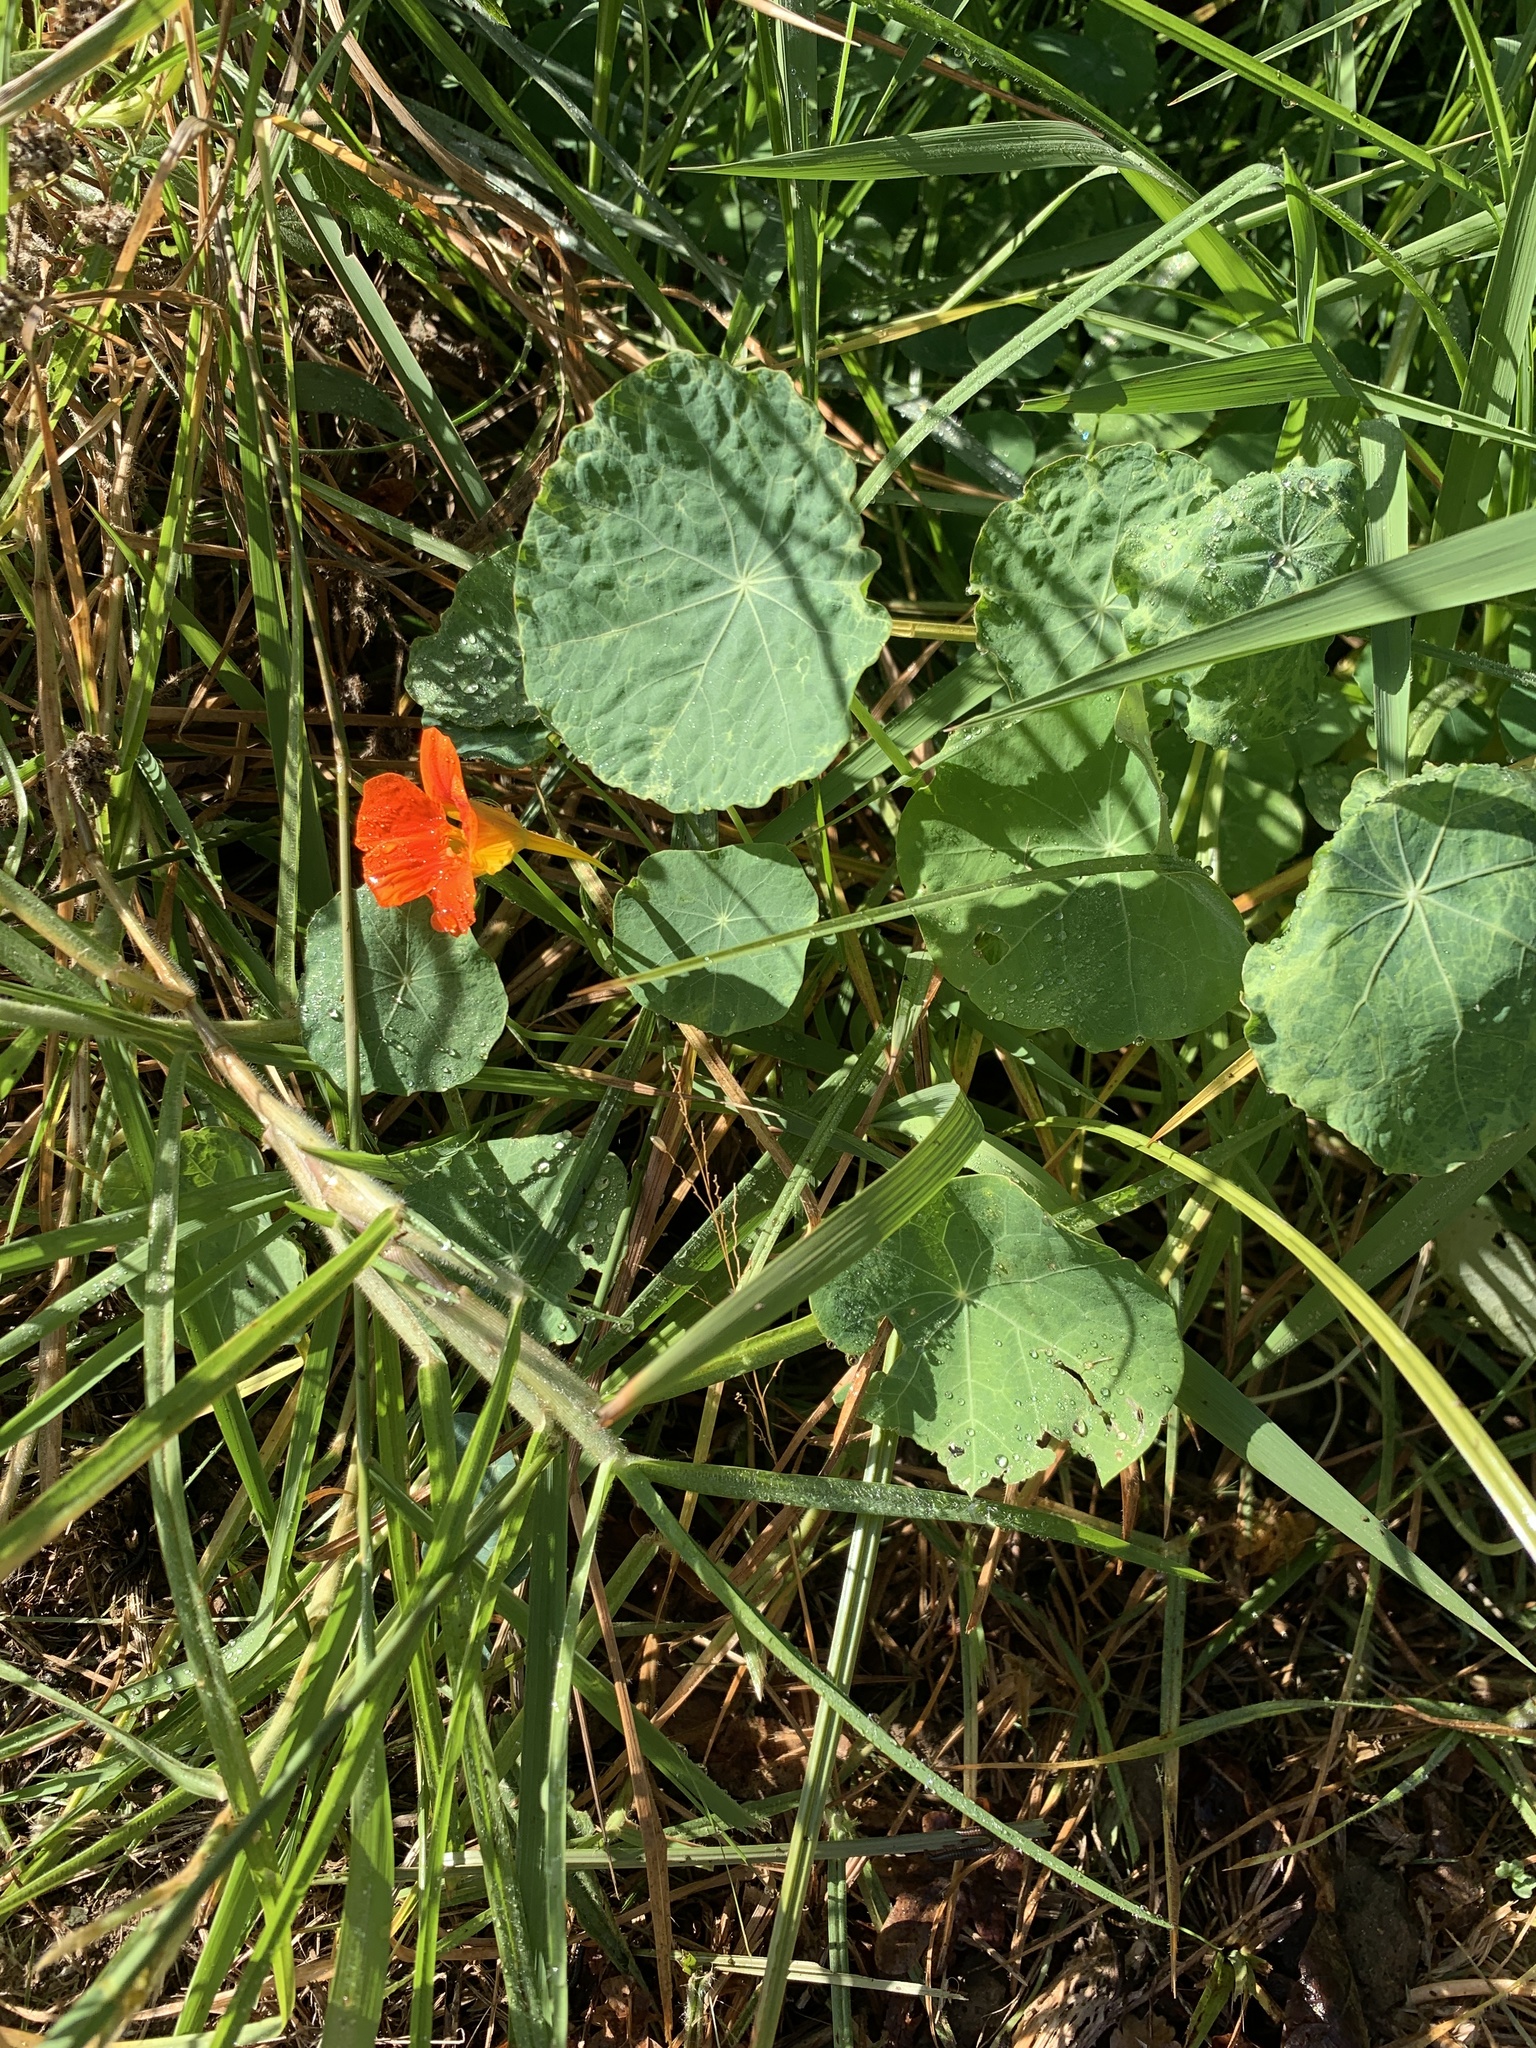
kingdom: Plantae
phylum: Tracheophyta
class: Magnoliopsida
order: Brassicales
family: Tropaeolaceae
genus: Tropaeolum
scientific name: Tropaeolum majus
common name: Nasturtium
